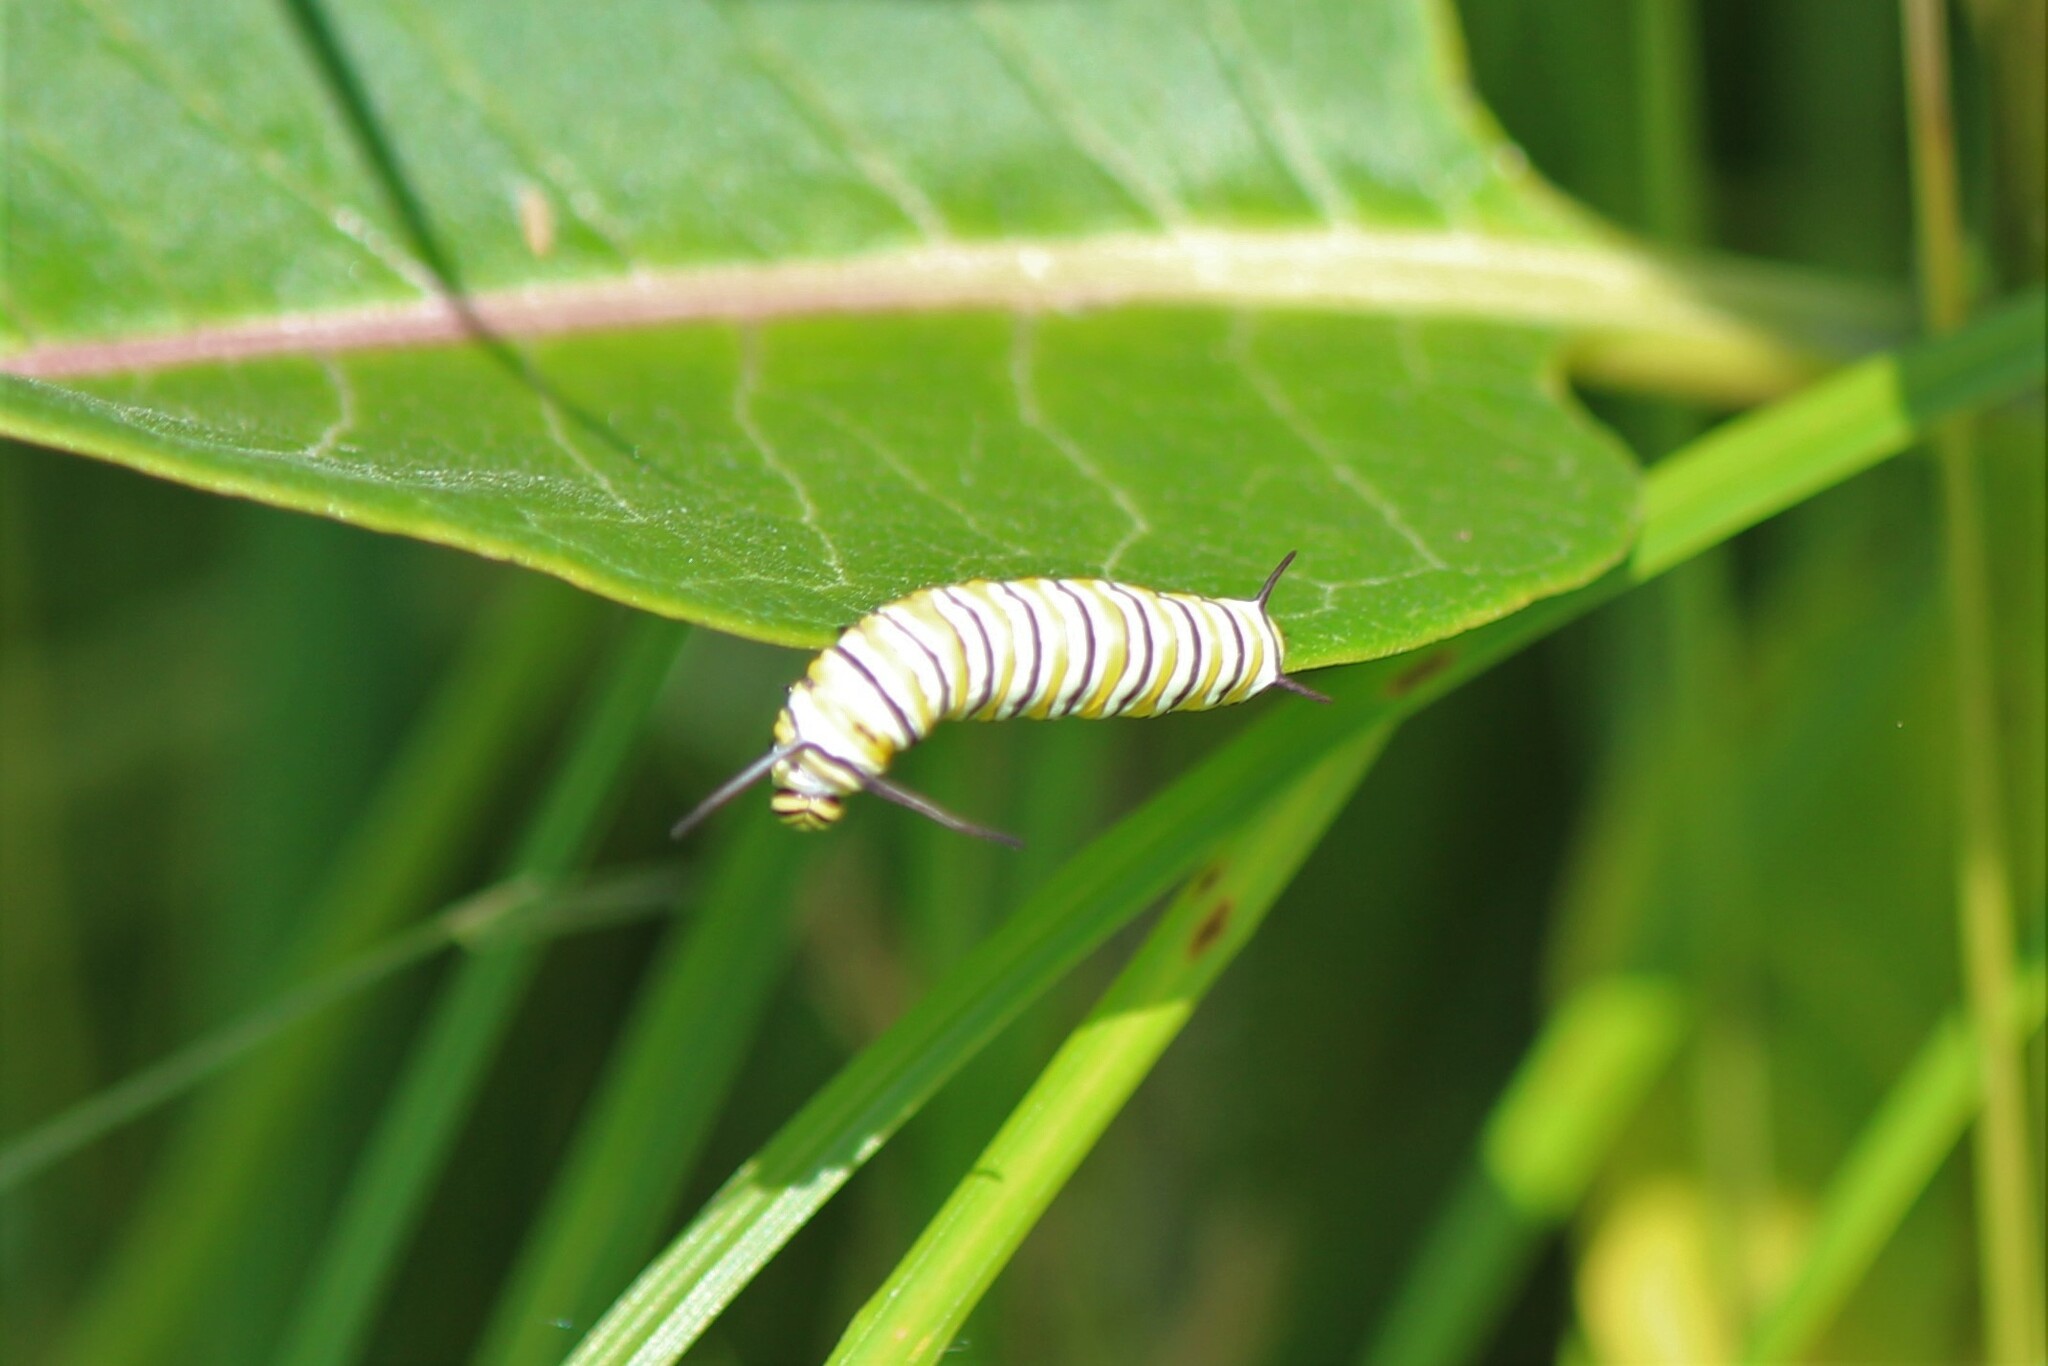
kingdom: Animalia
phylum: Arthropoda
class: Insecta
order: Lepidoptera
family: Nymphalidae
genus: Danaus
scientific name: Danaus plexippus
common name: Monarch
